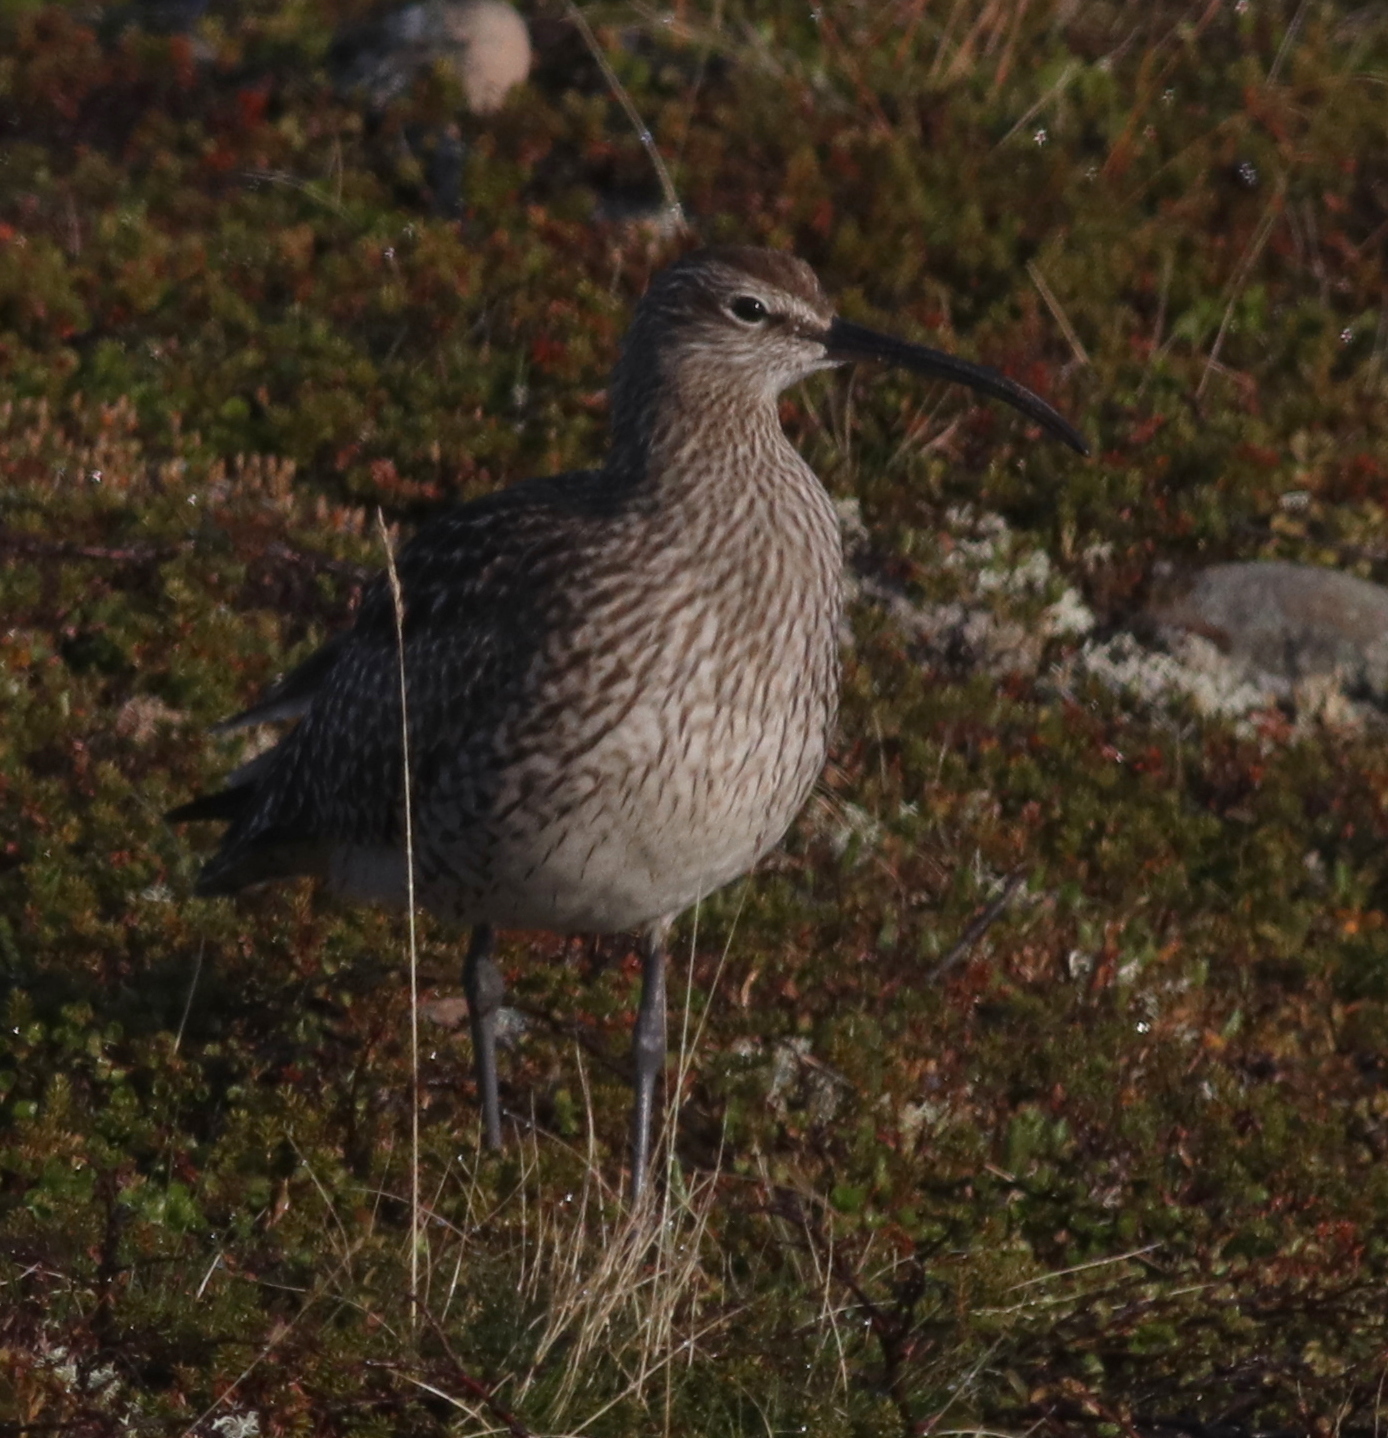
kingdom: Animalia
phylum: Chordata
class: Aves
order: Charadriiformes
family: Scolopacidae
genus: Numenius
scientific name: Numenius phaeopus
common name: Whimbrel
